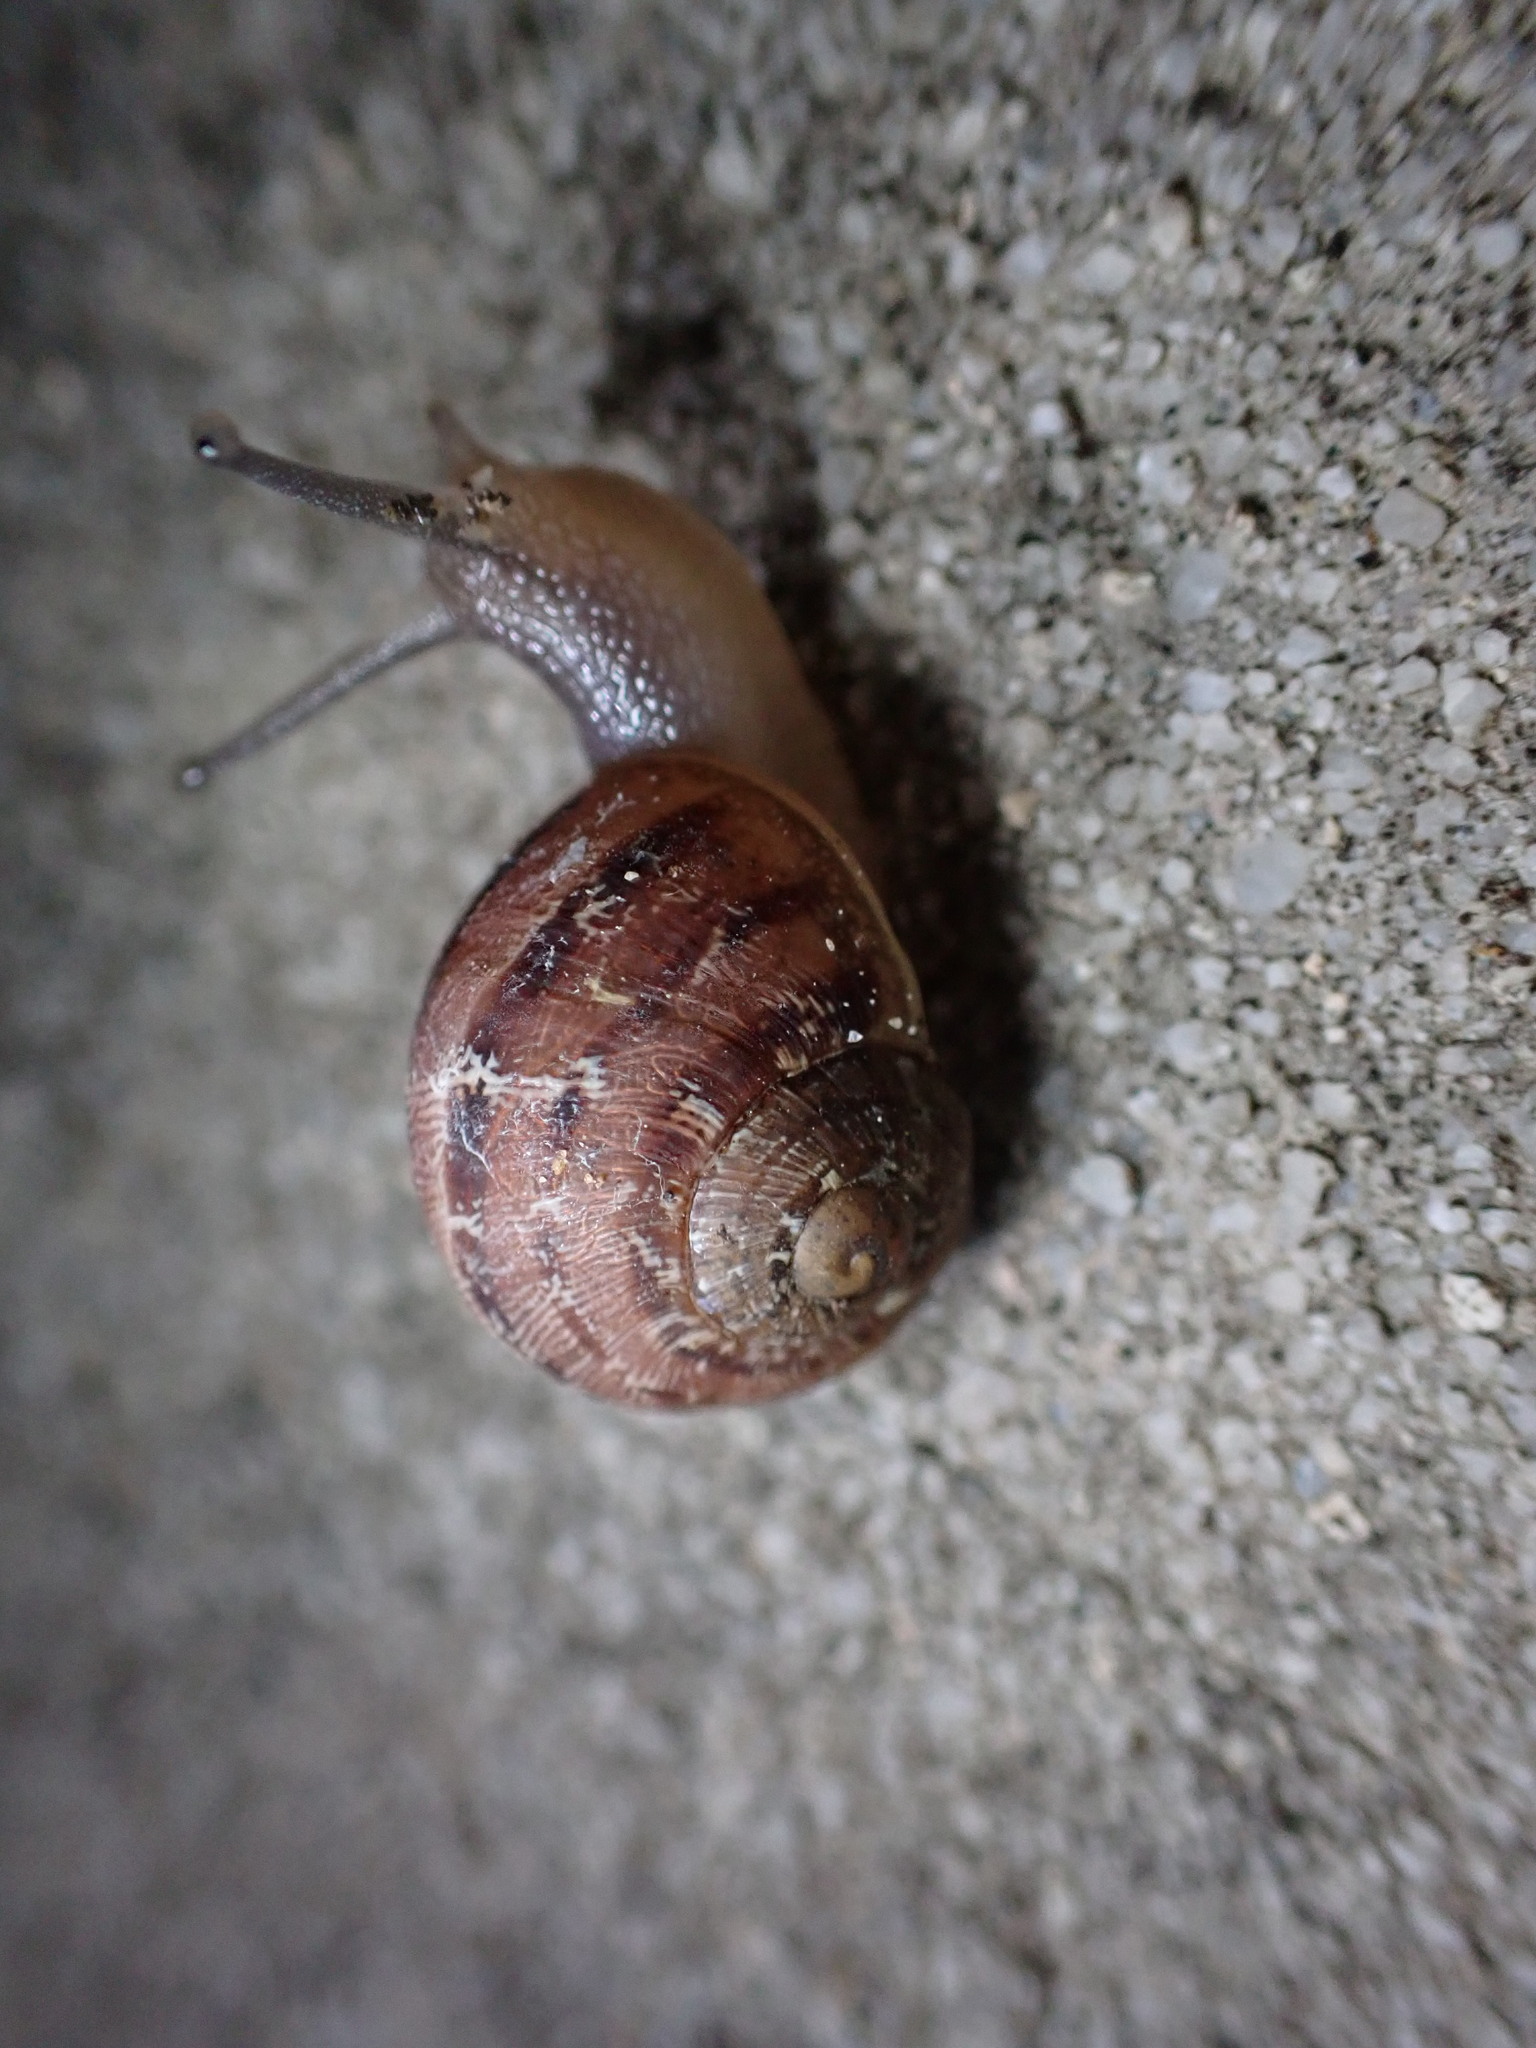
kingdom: Animalia
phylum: Mollusca
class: Gastropoda
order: Stylommatophora
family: Helicidae
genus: Cornu
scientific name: Cornu aspersum
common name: Brown garden snail
